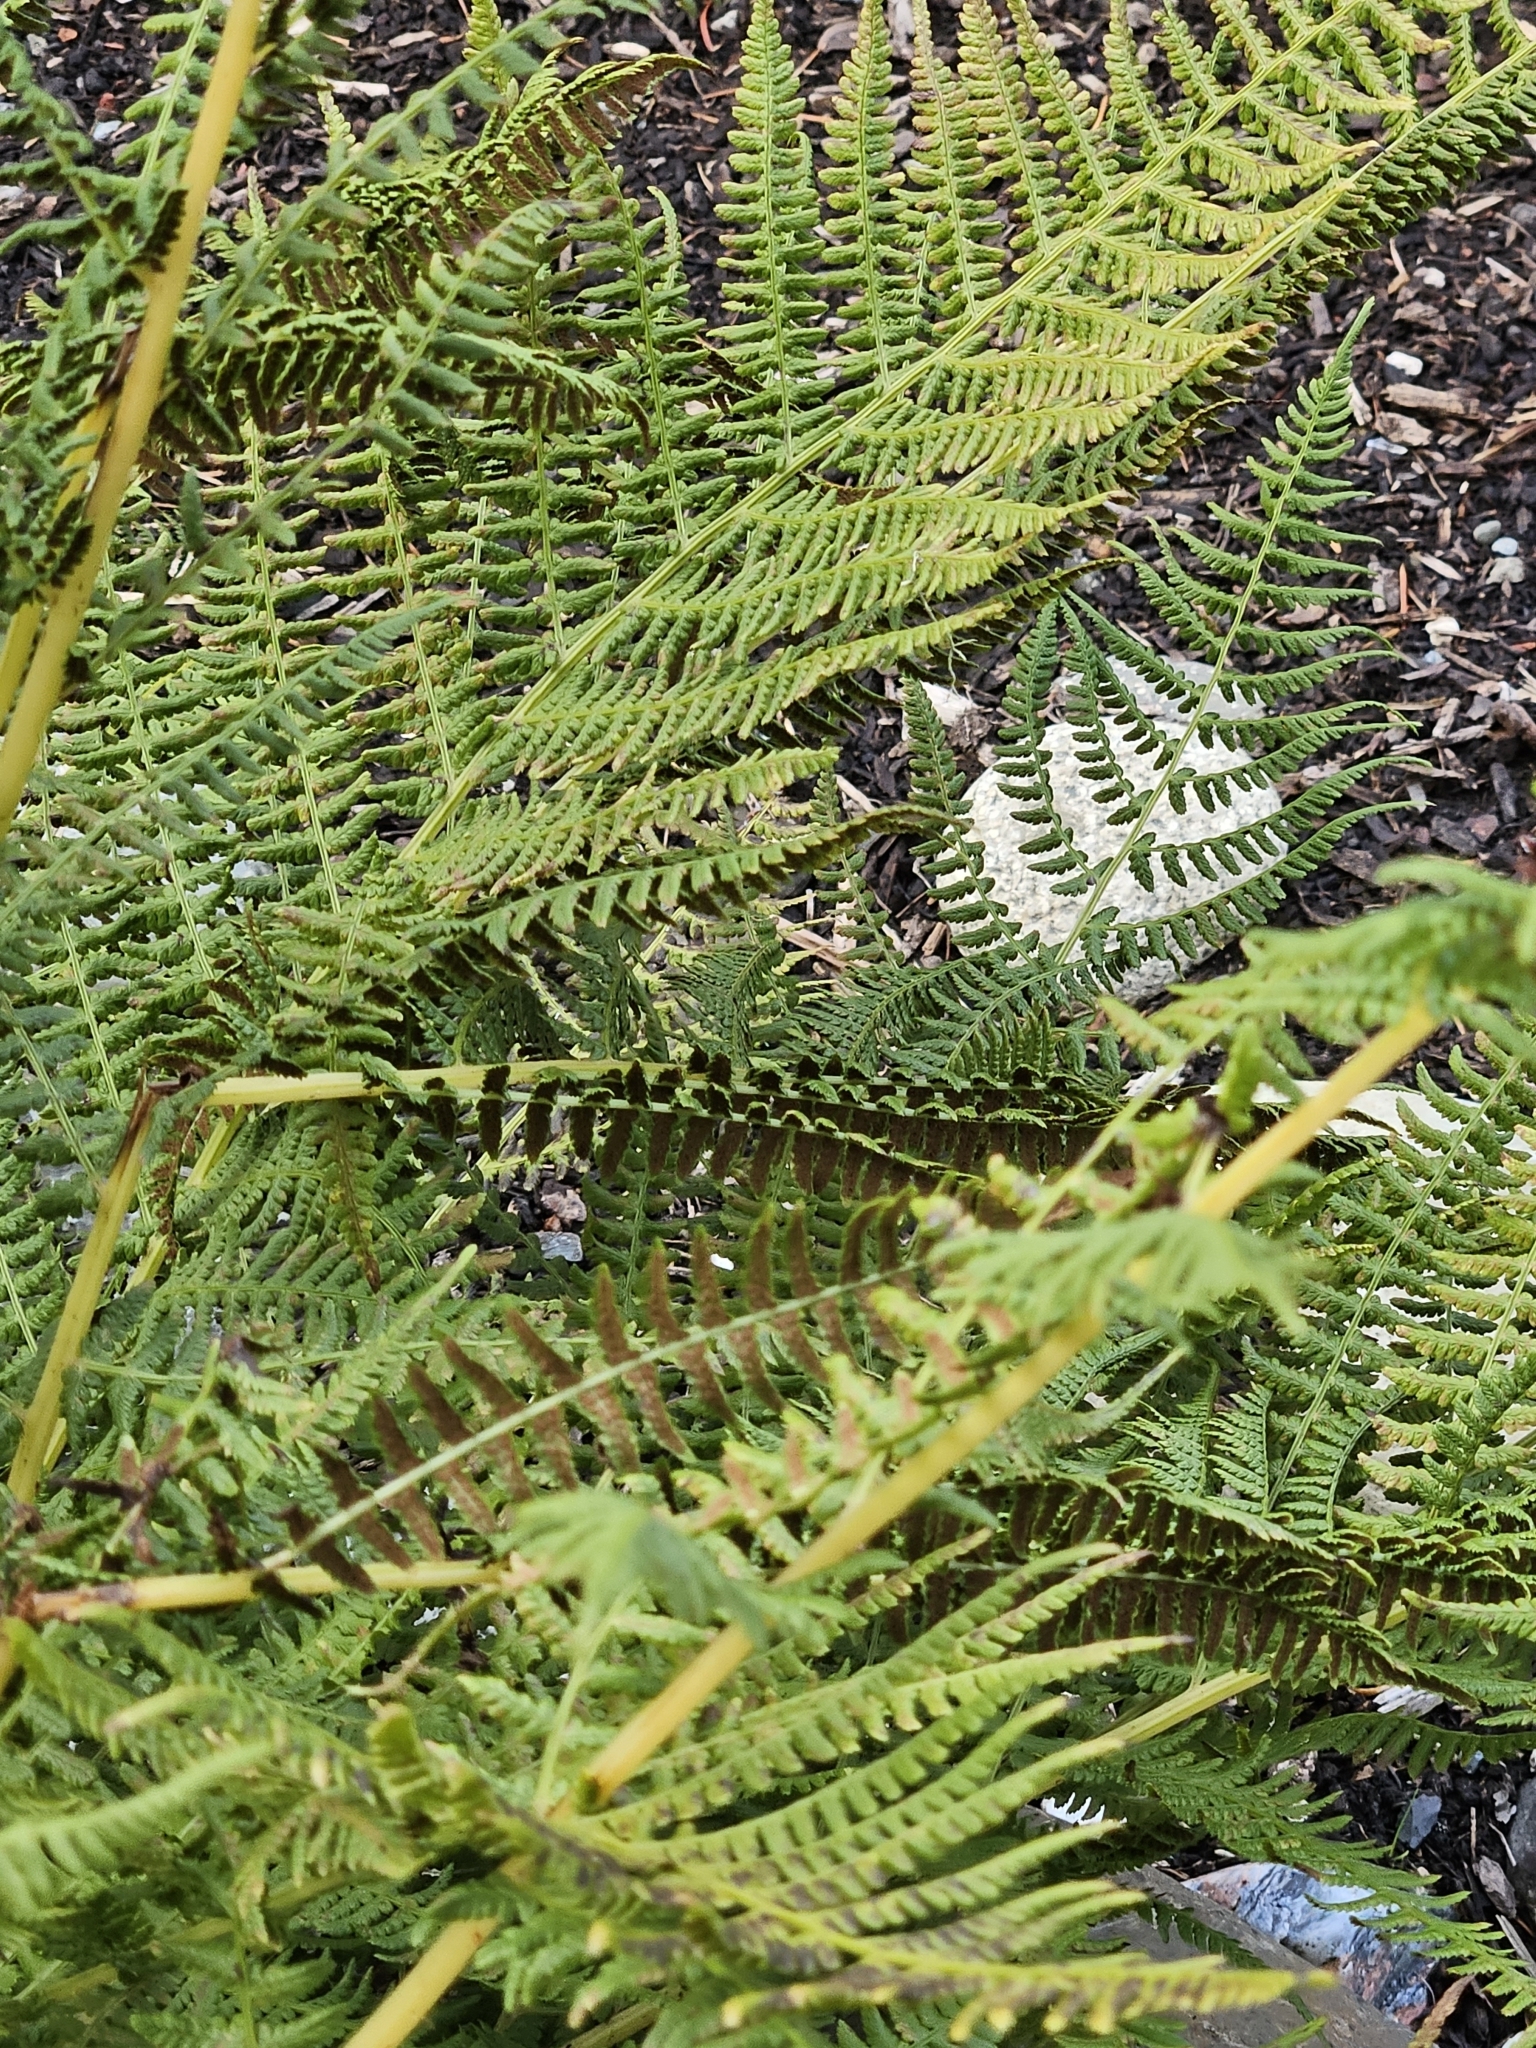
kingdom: Plantae
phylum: Tracheophyta
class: Polypodiopsida
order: Polypodiales
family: Athyriaceae
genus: Athyrium
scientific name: Athyrium cyclosorum
